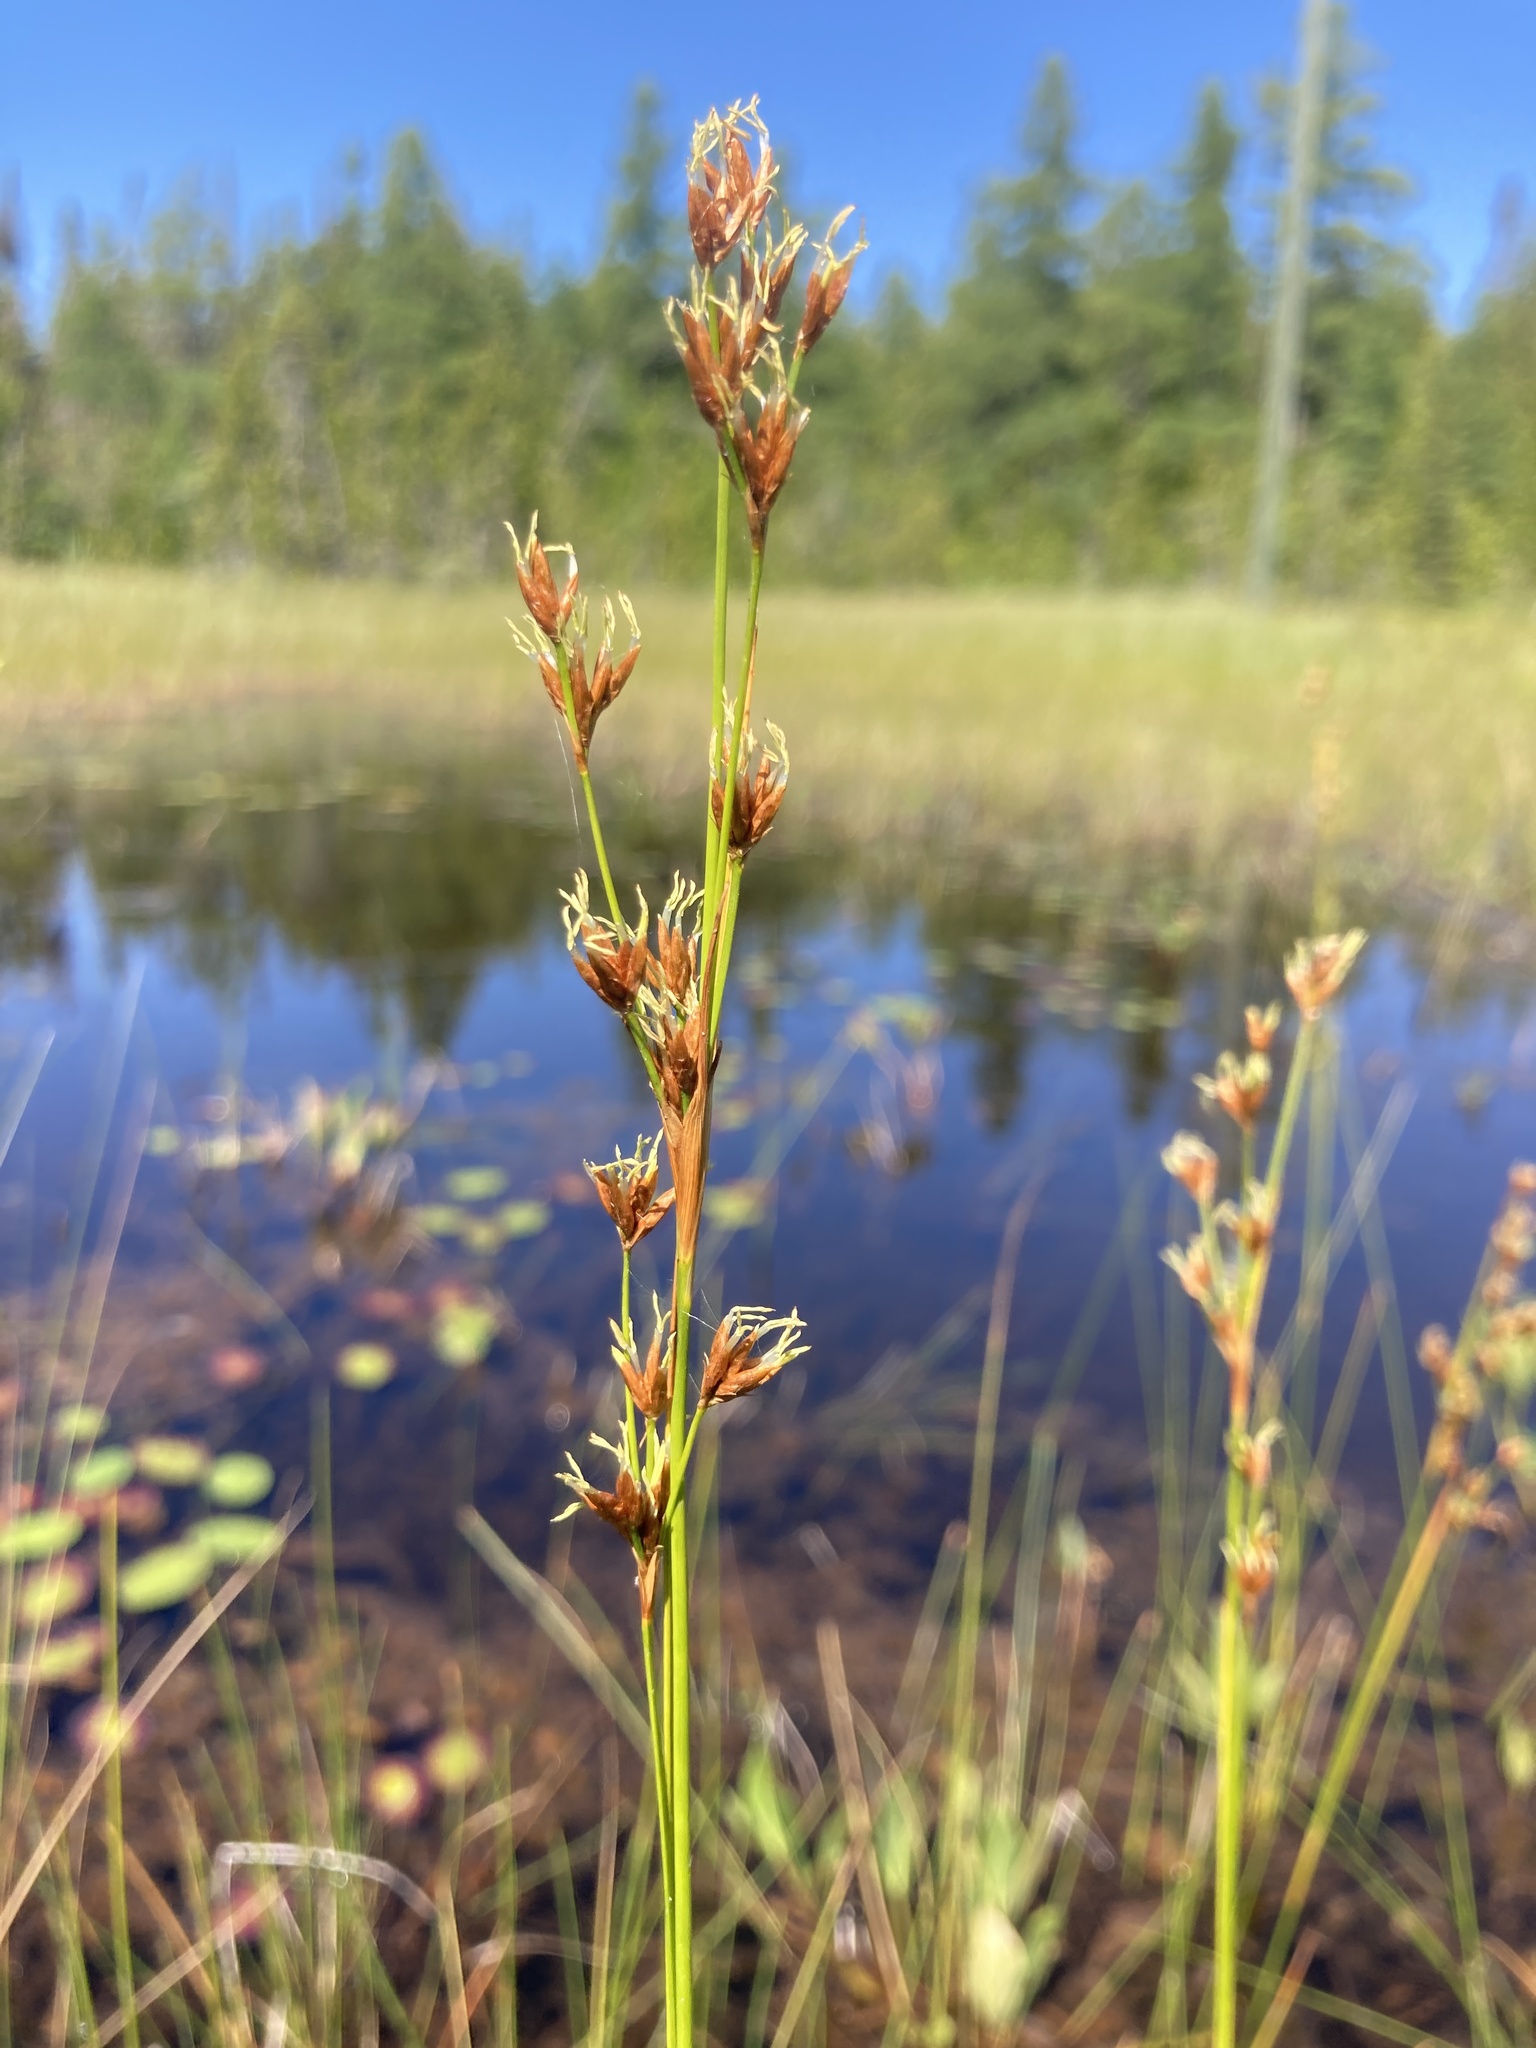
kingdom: Plantae
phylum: Tracheophyta
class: Liliopsida
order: Poales
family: Cyperaceae
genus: Cladium
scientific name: Cladium mariscoides
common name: Smooth sawgrass
